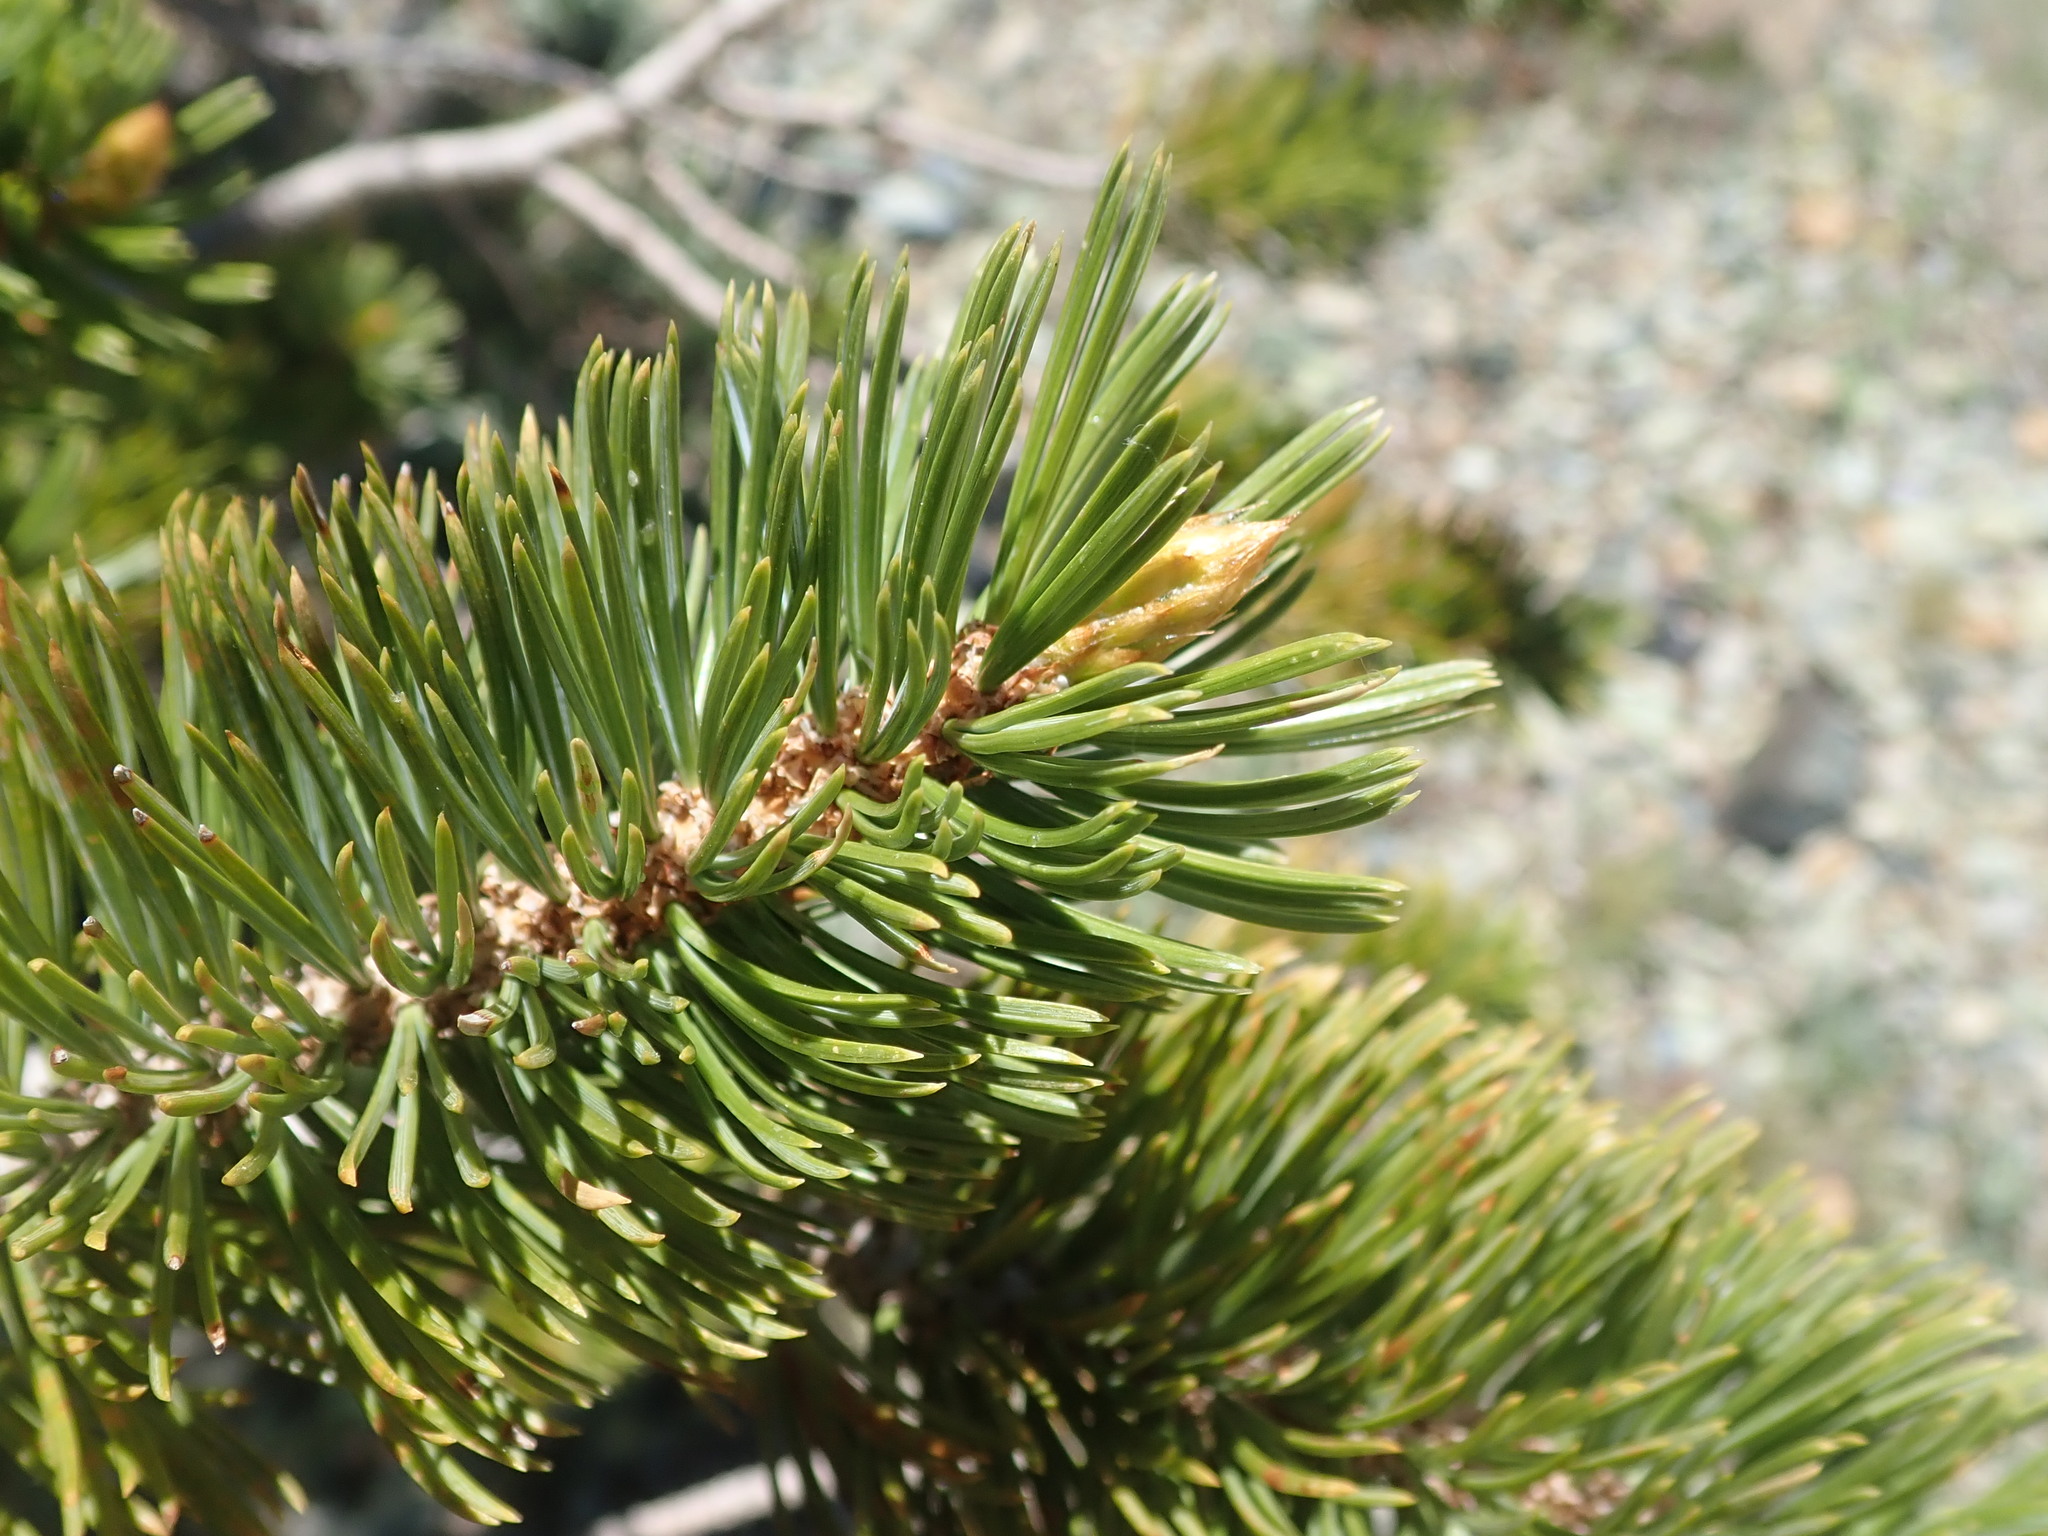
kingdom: Plantae
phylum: Tracheophyta
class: Pinopsida
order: Pinales
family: Pinaceae
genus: Pinus
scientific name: Pinus balfouriana
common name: Foxtail pine
